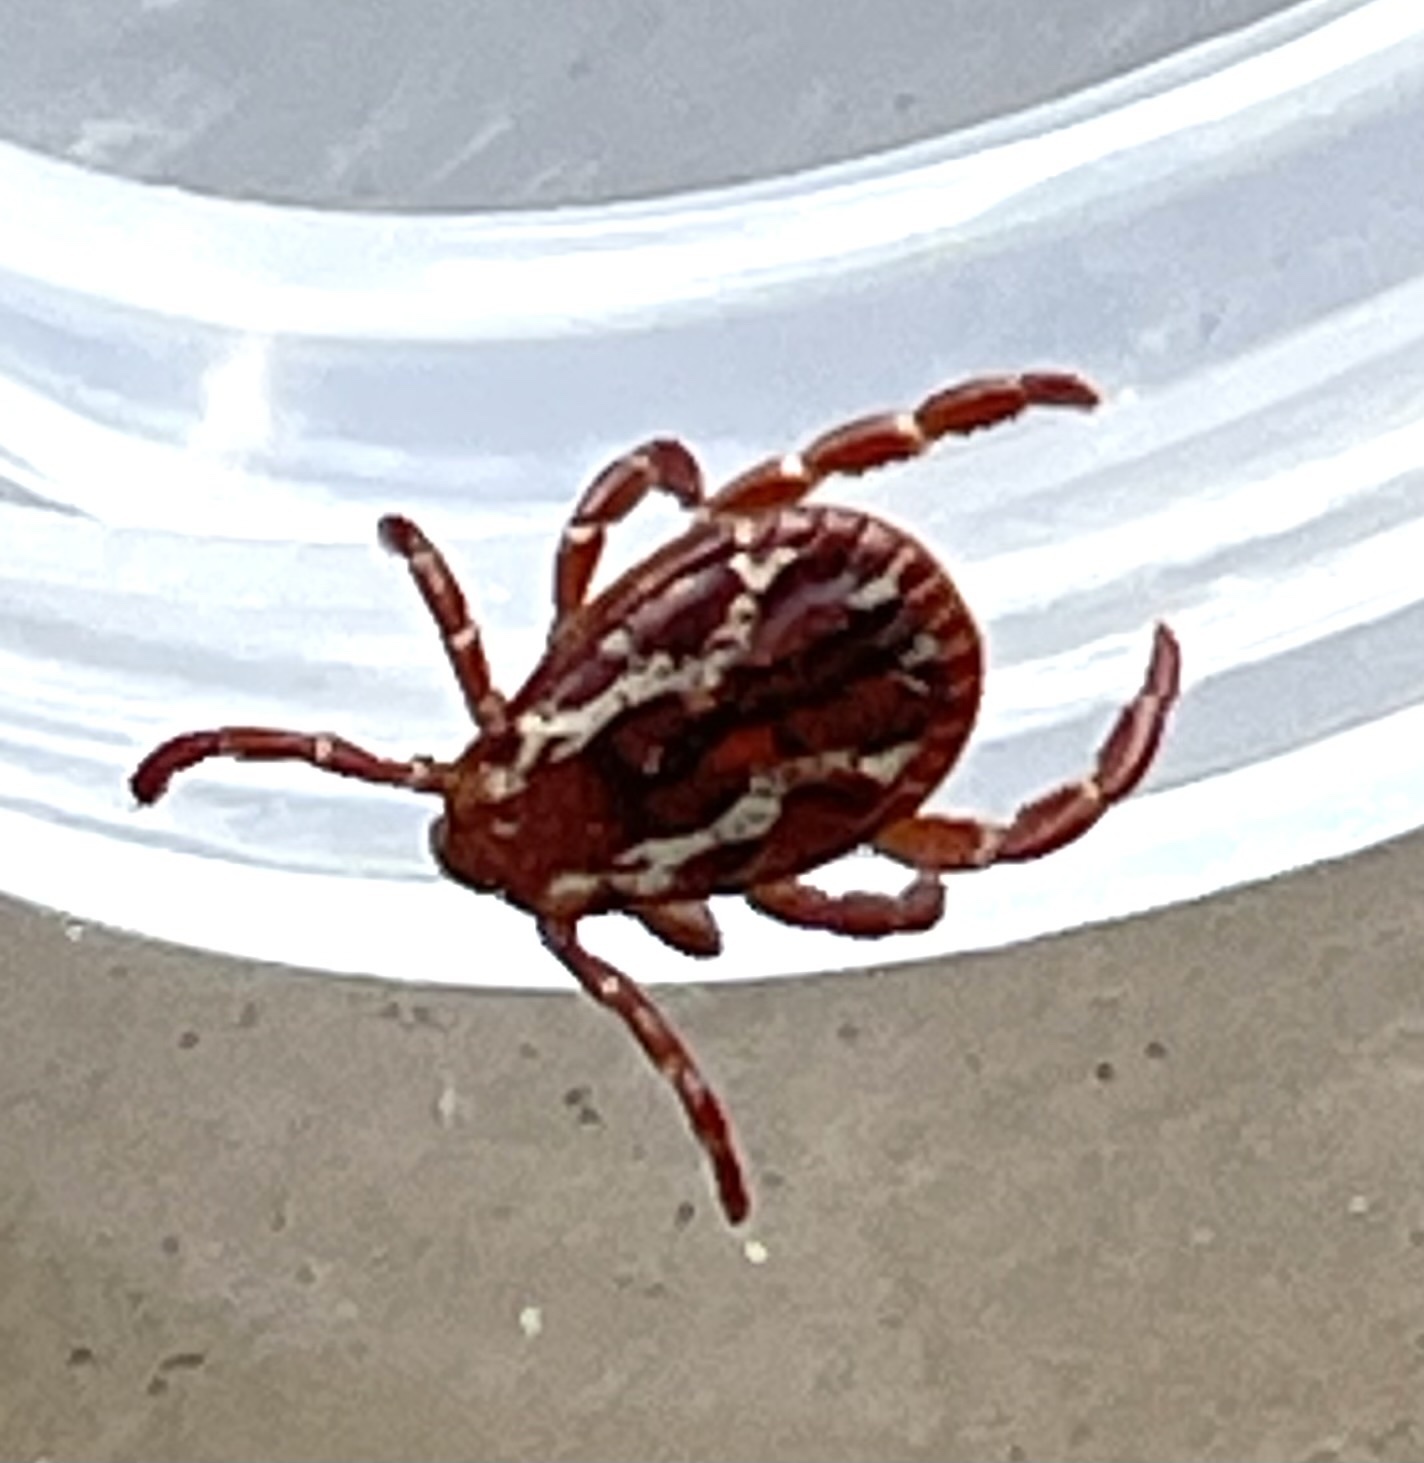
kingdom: Animalia
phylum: Arthropoda
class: Arachnida
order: Ixodida
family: Ixodidae
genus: Dermacentor
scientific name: Dermacentor variabilis
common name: American dog tick
